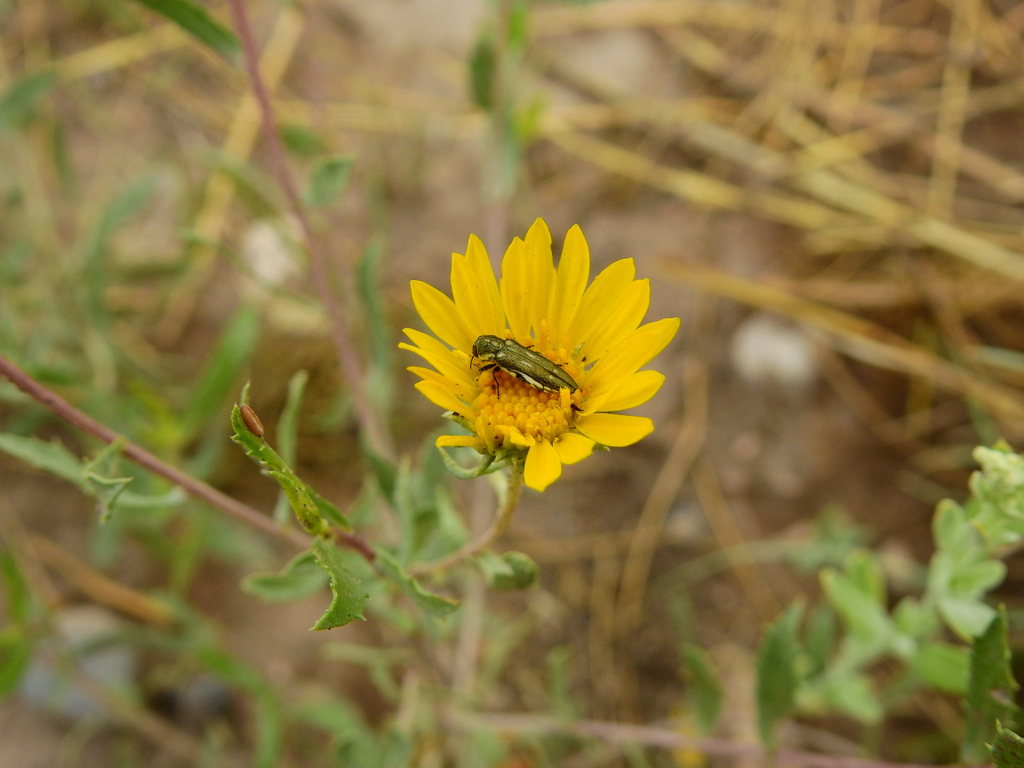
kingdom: Plantae
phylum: Tracheophyta
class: Magnoliopsida
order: Asterales
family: Asteraceae
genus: Grindelia
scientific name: Grindelia pulchella
